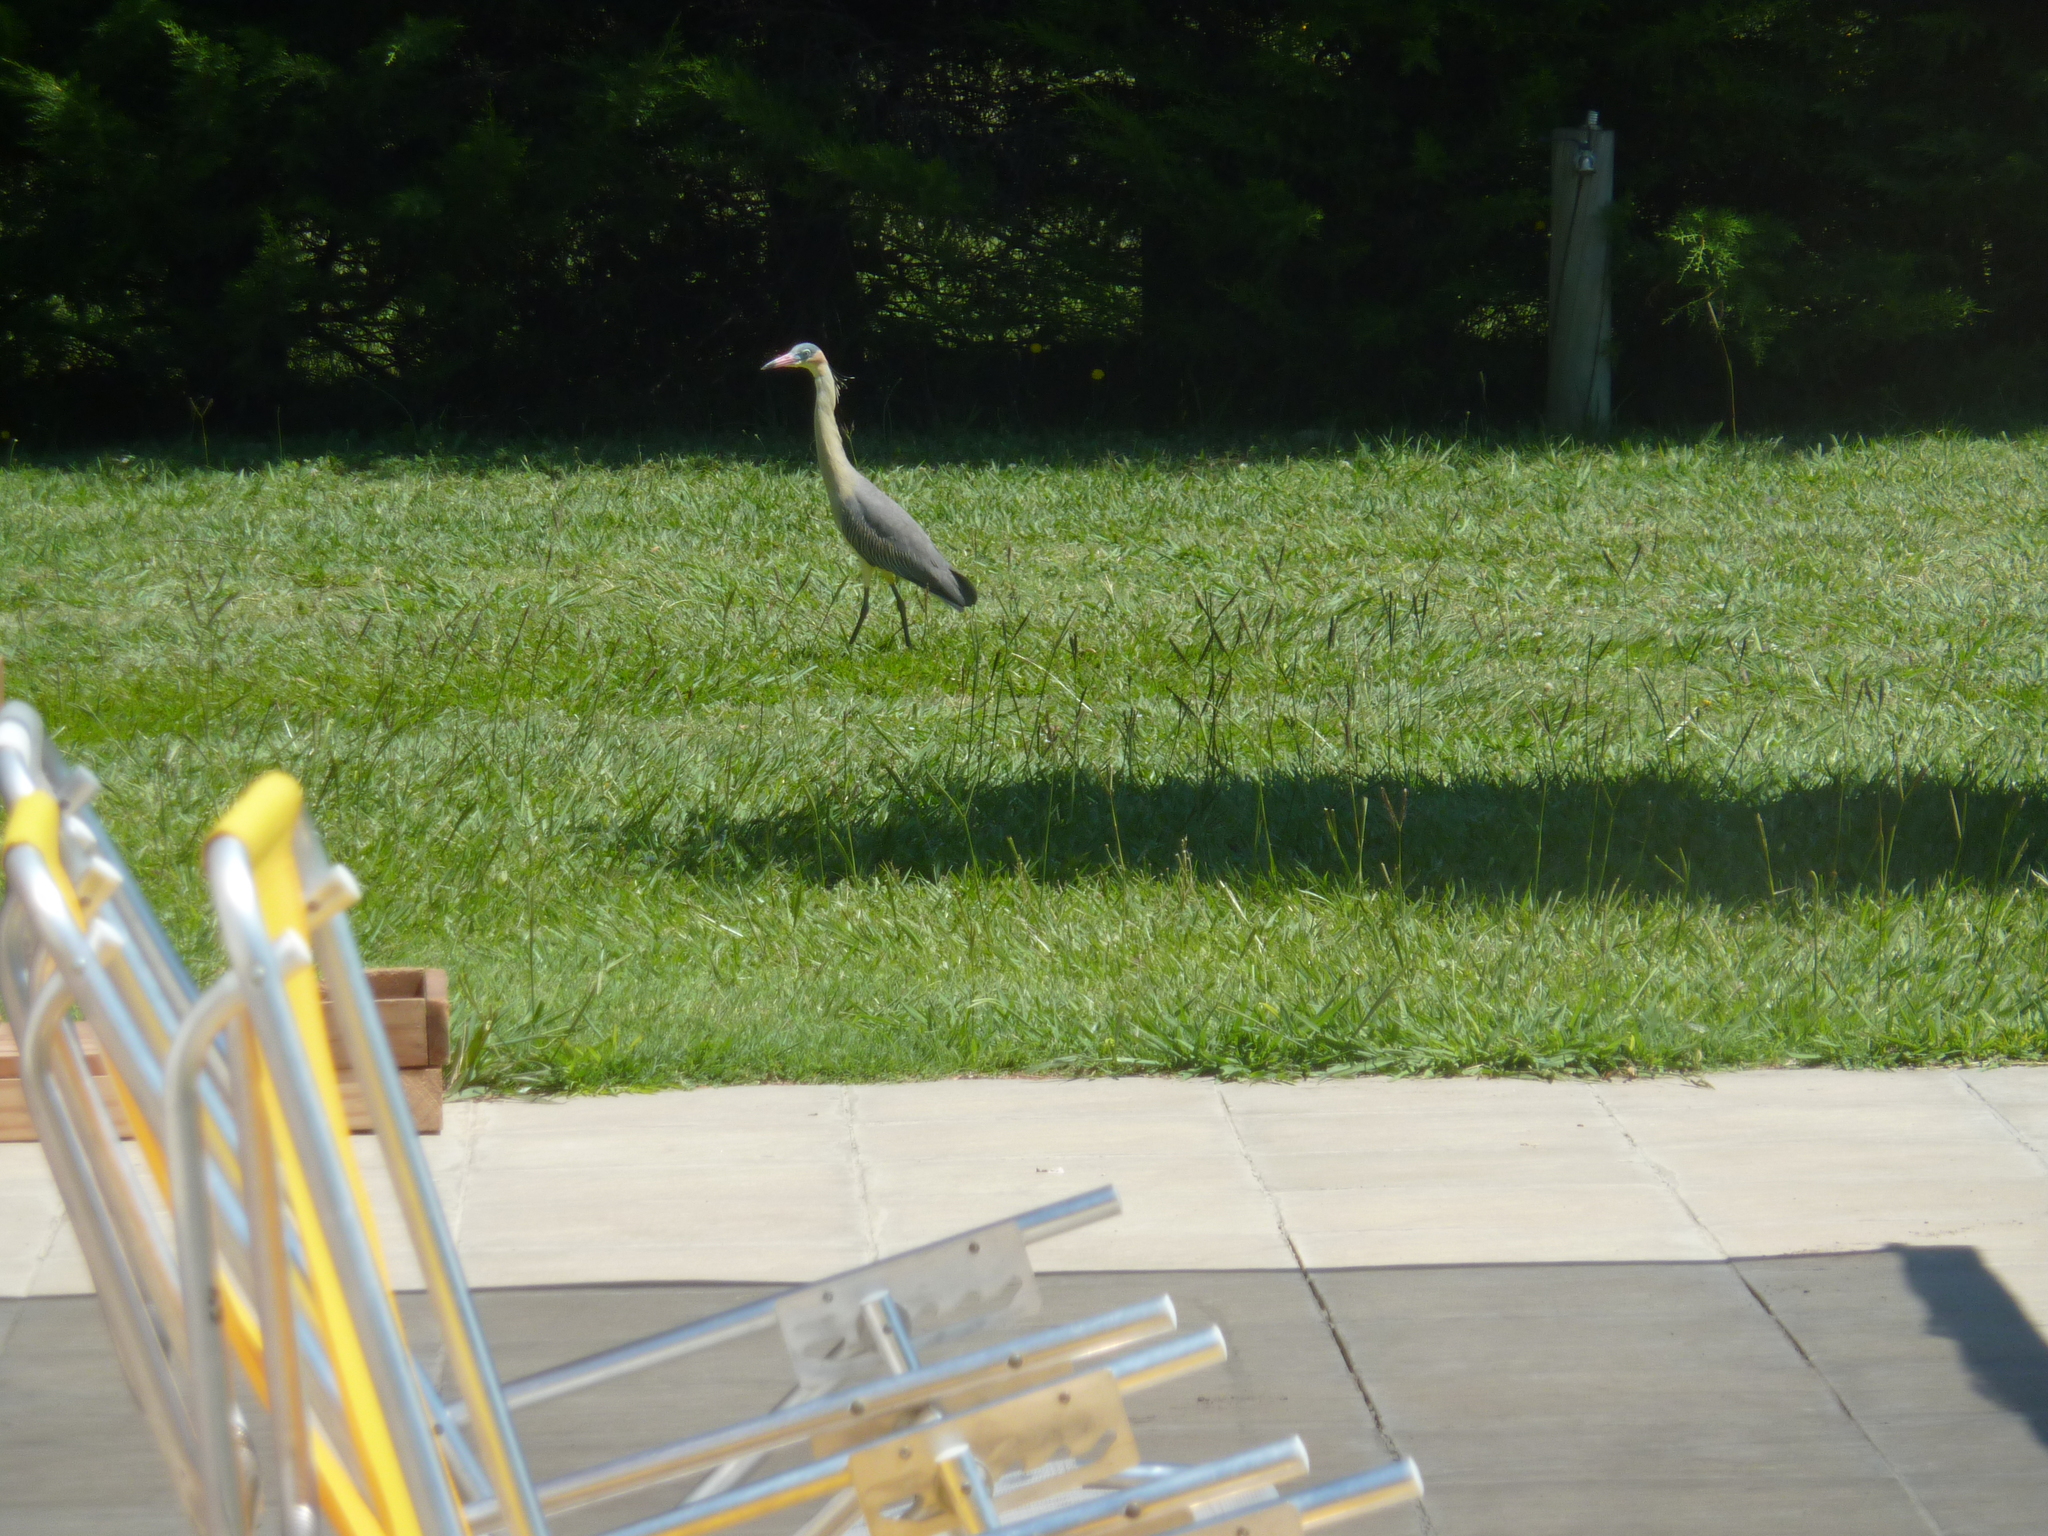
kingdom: Animalia
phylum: Chordata
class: Aves
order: Pelecaniformes
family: Ardeidae
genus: Syrigma
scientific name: Syrigma sibilatrix
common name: Whistling heron
